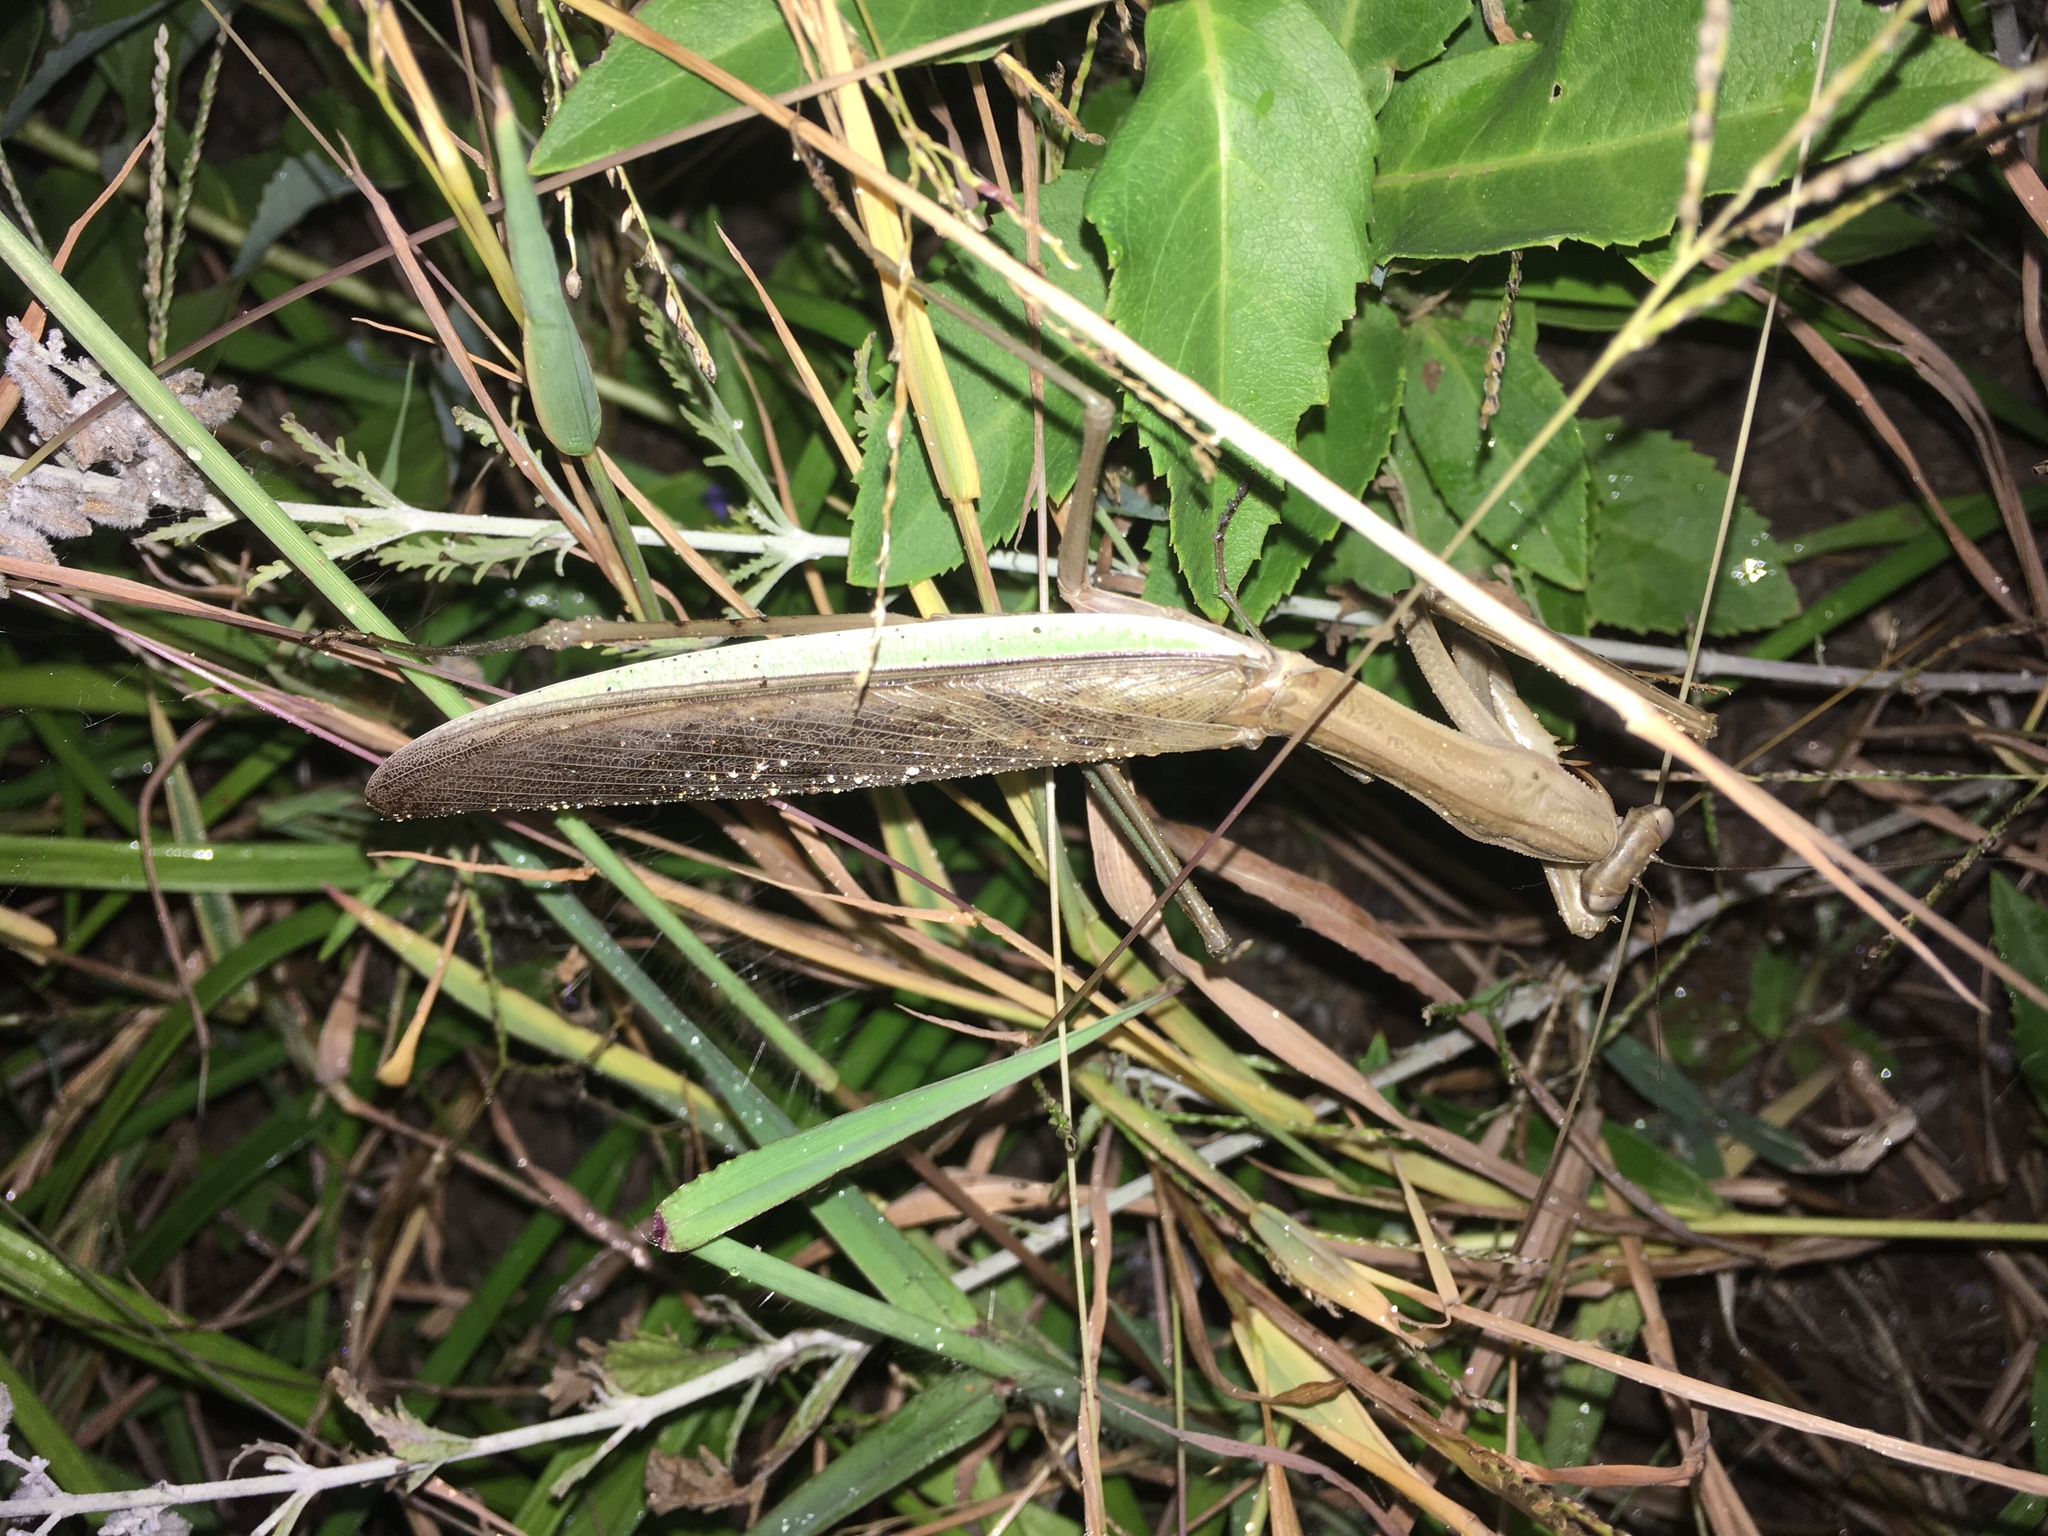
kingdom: Animalia
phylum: Arthropoda
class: Insecta
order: Mantodea
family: Mantidae
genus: Tenodera
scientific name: Tenodera sinensis
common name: Chinese mantis
